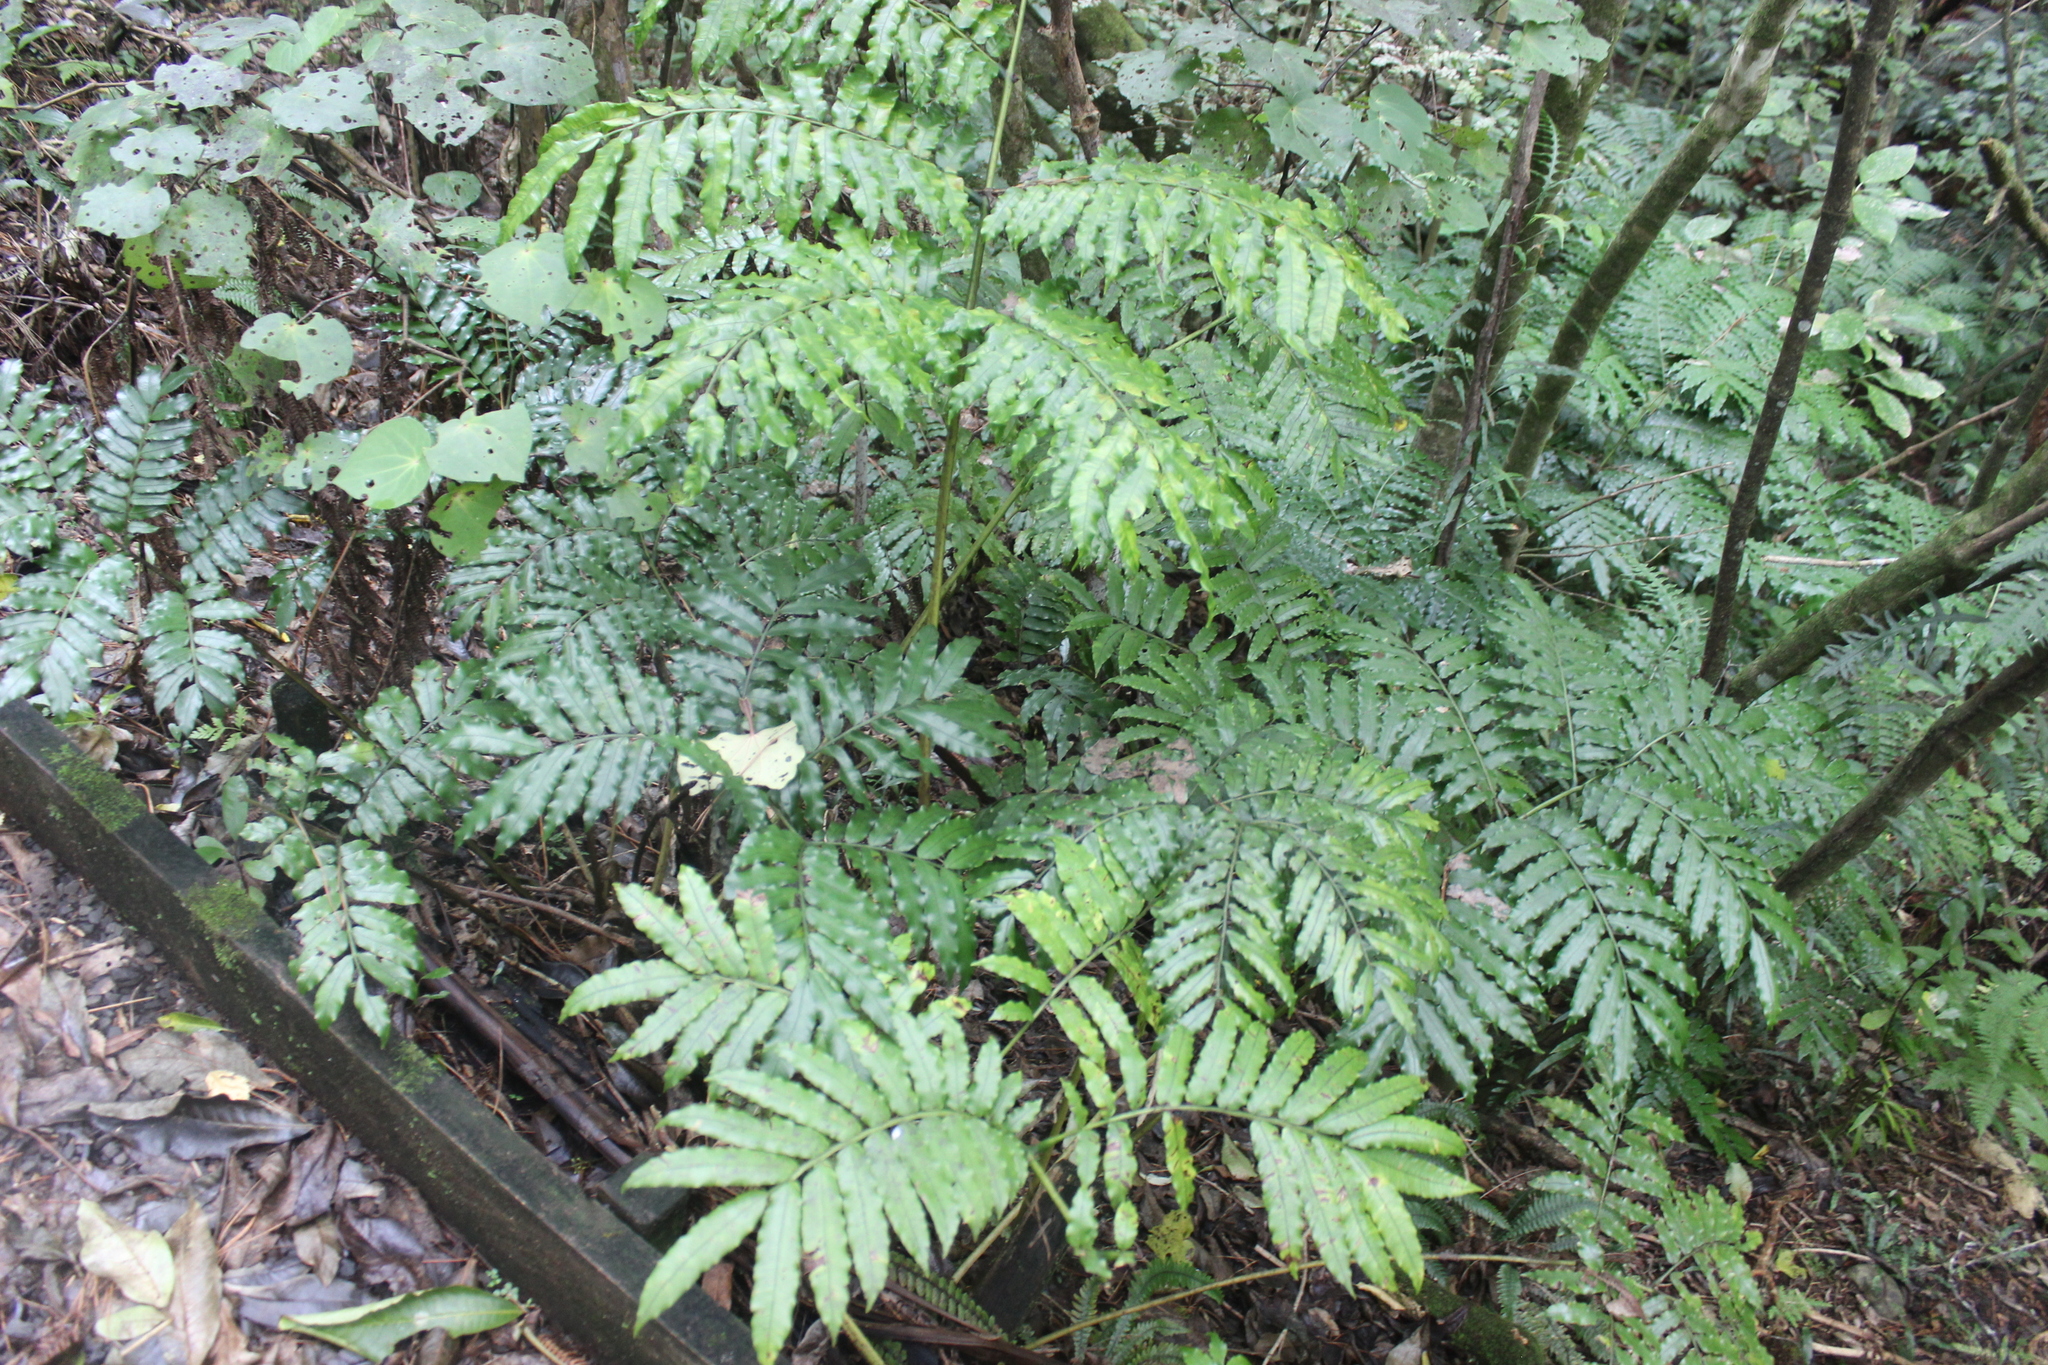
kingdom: Plantae
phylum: Tracheophyta
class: Polypodiopsida
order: Marattiales
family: Marattiaceae
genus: Ptisana
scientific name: Ptisana salicina
